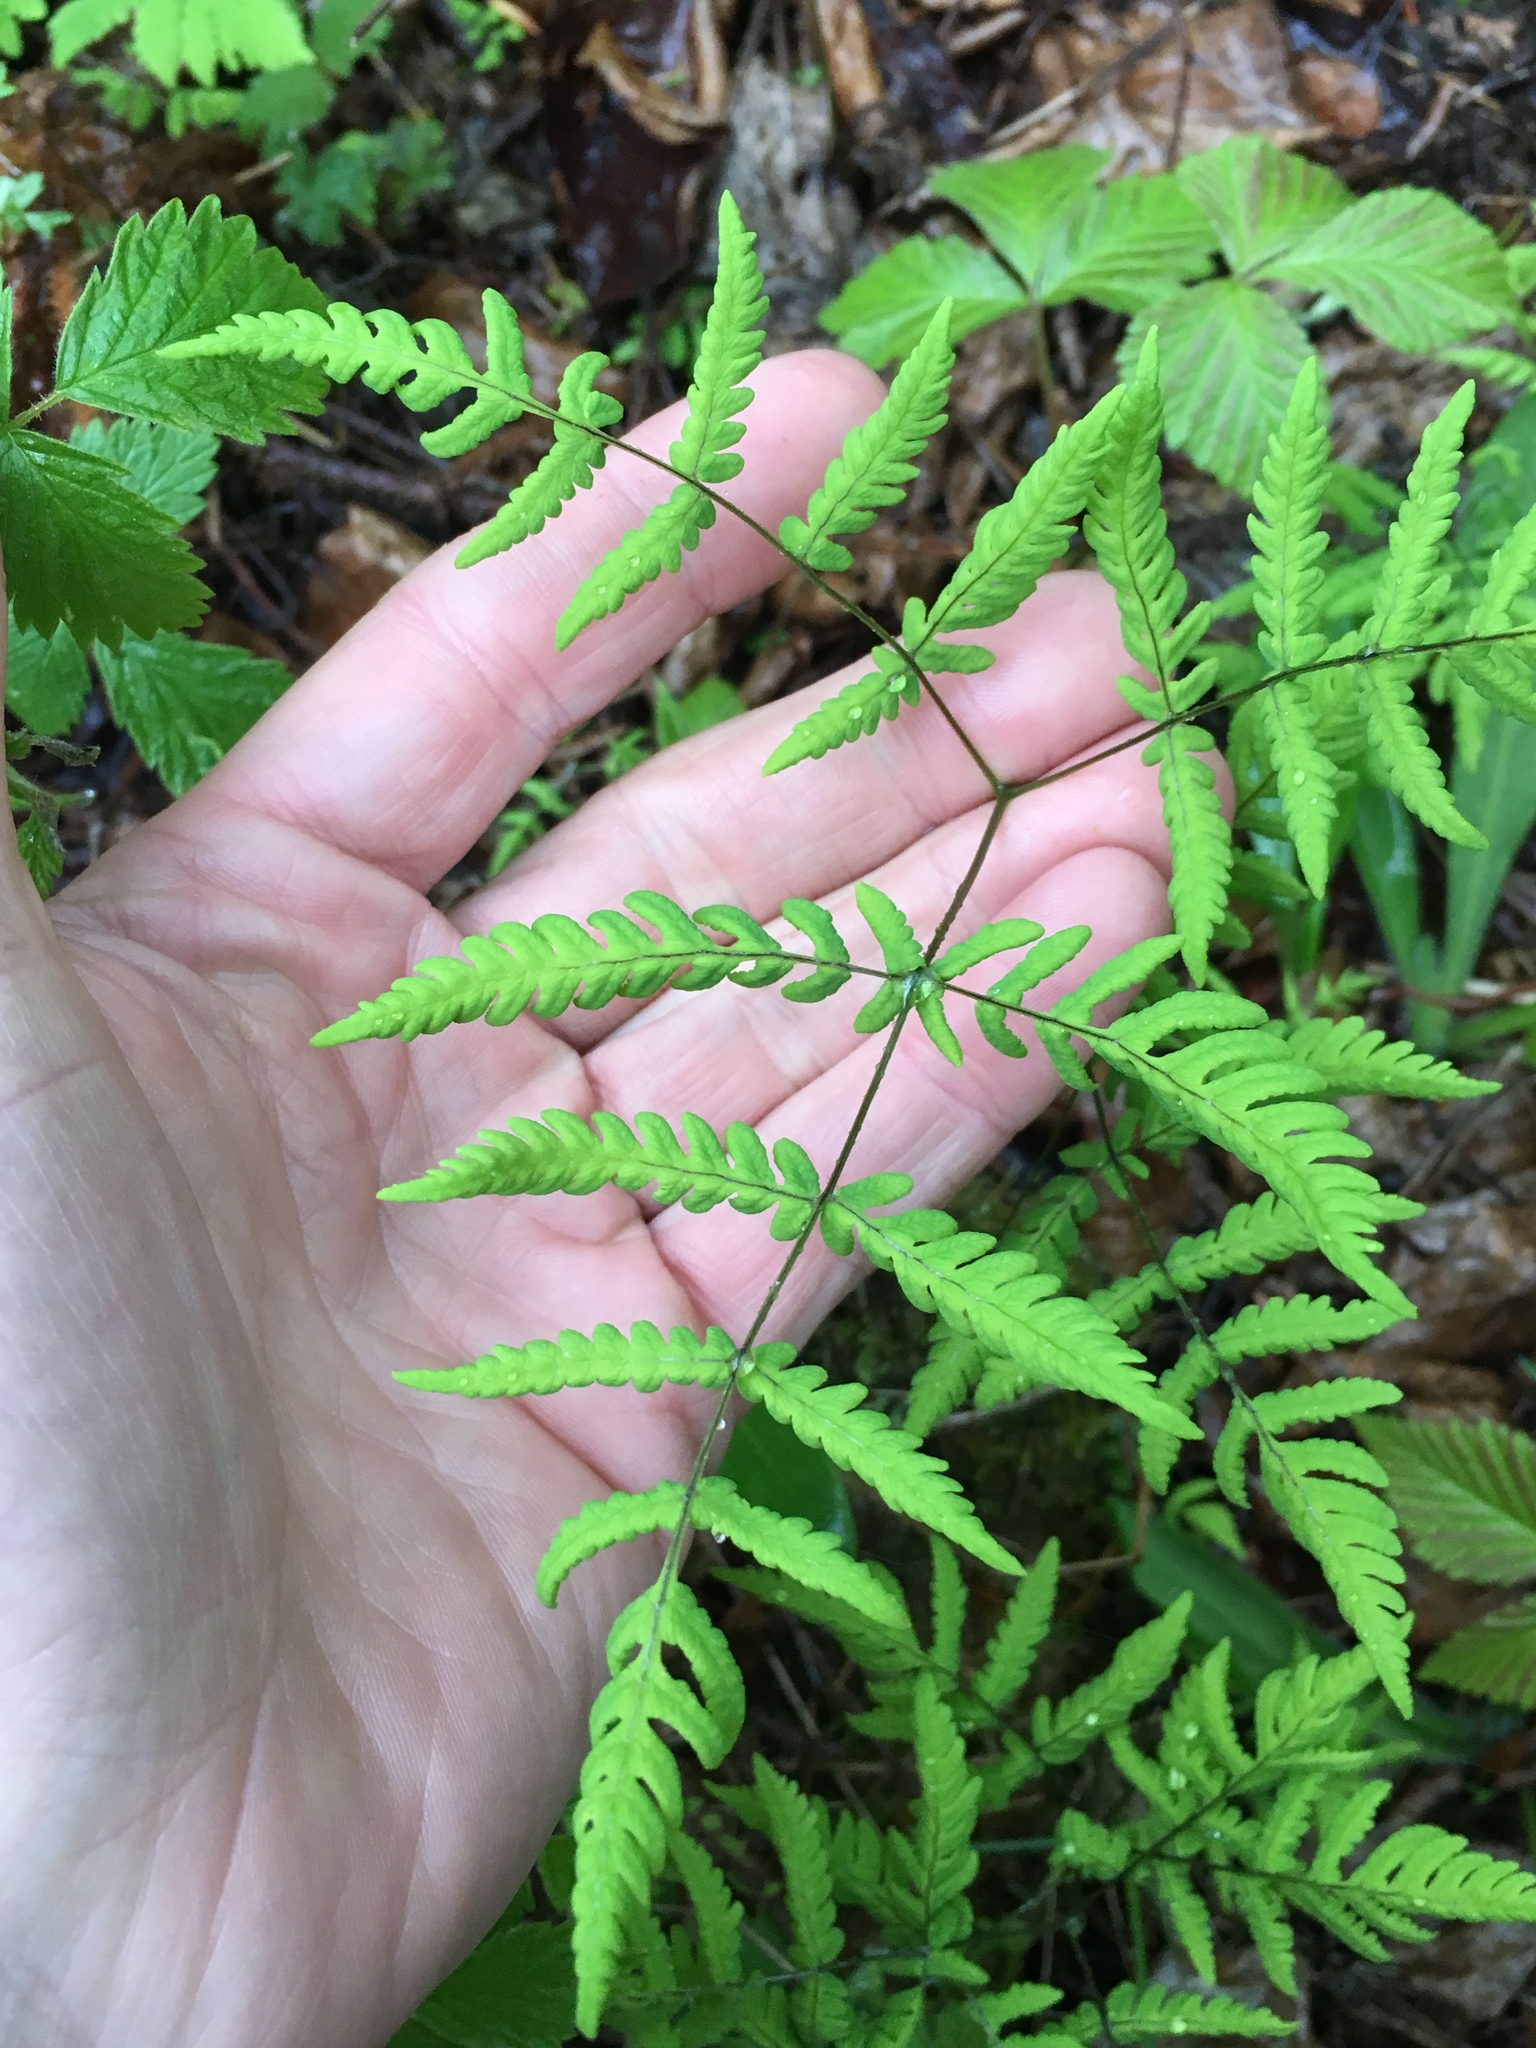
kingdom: Plantae
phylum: Tracheophyta
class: Polypodiopsida
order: Polypodiales
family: Cystopteridaceae
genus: Gymnocarpium
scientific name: Gymnocarpium dryopteris
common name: Oak fern
